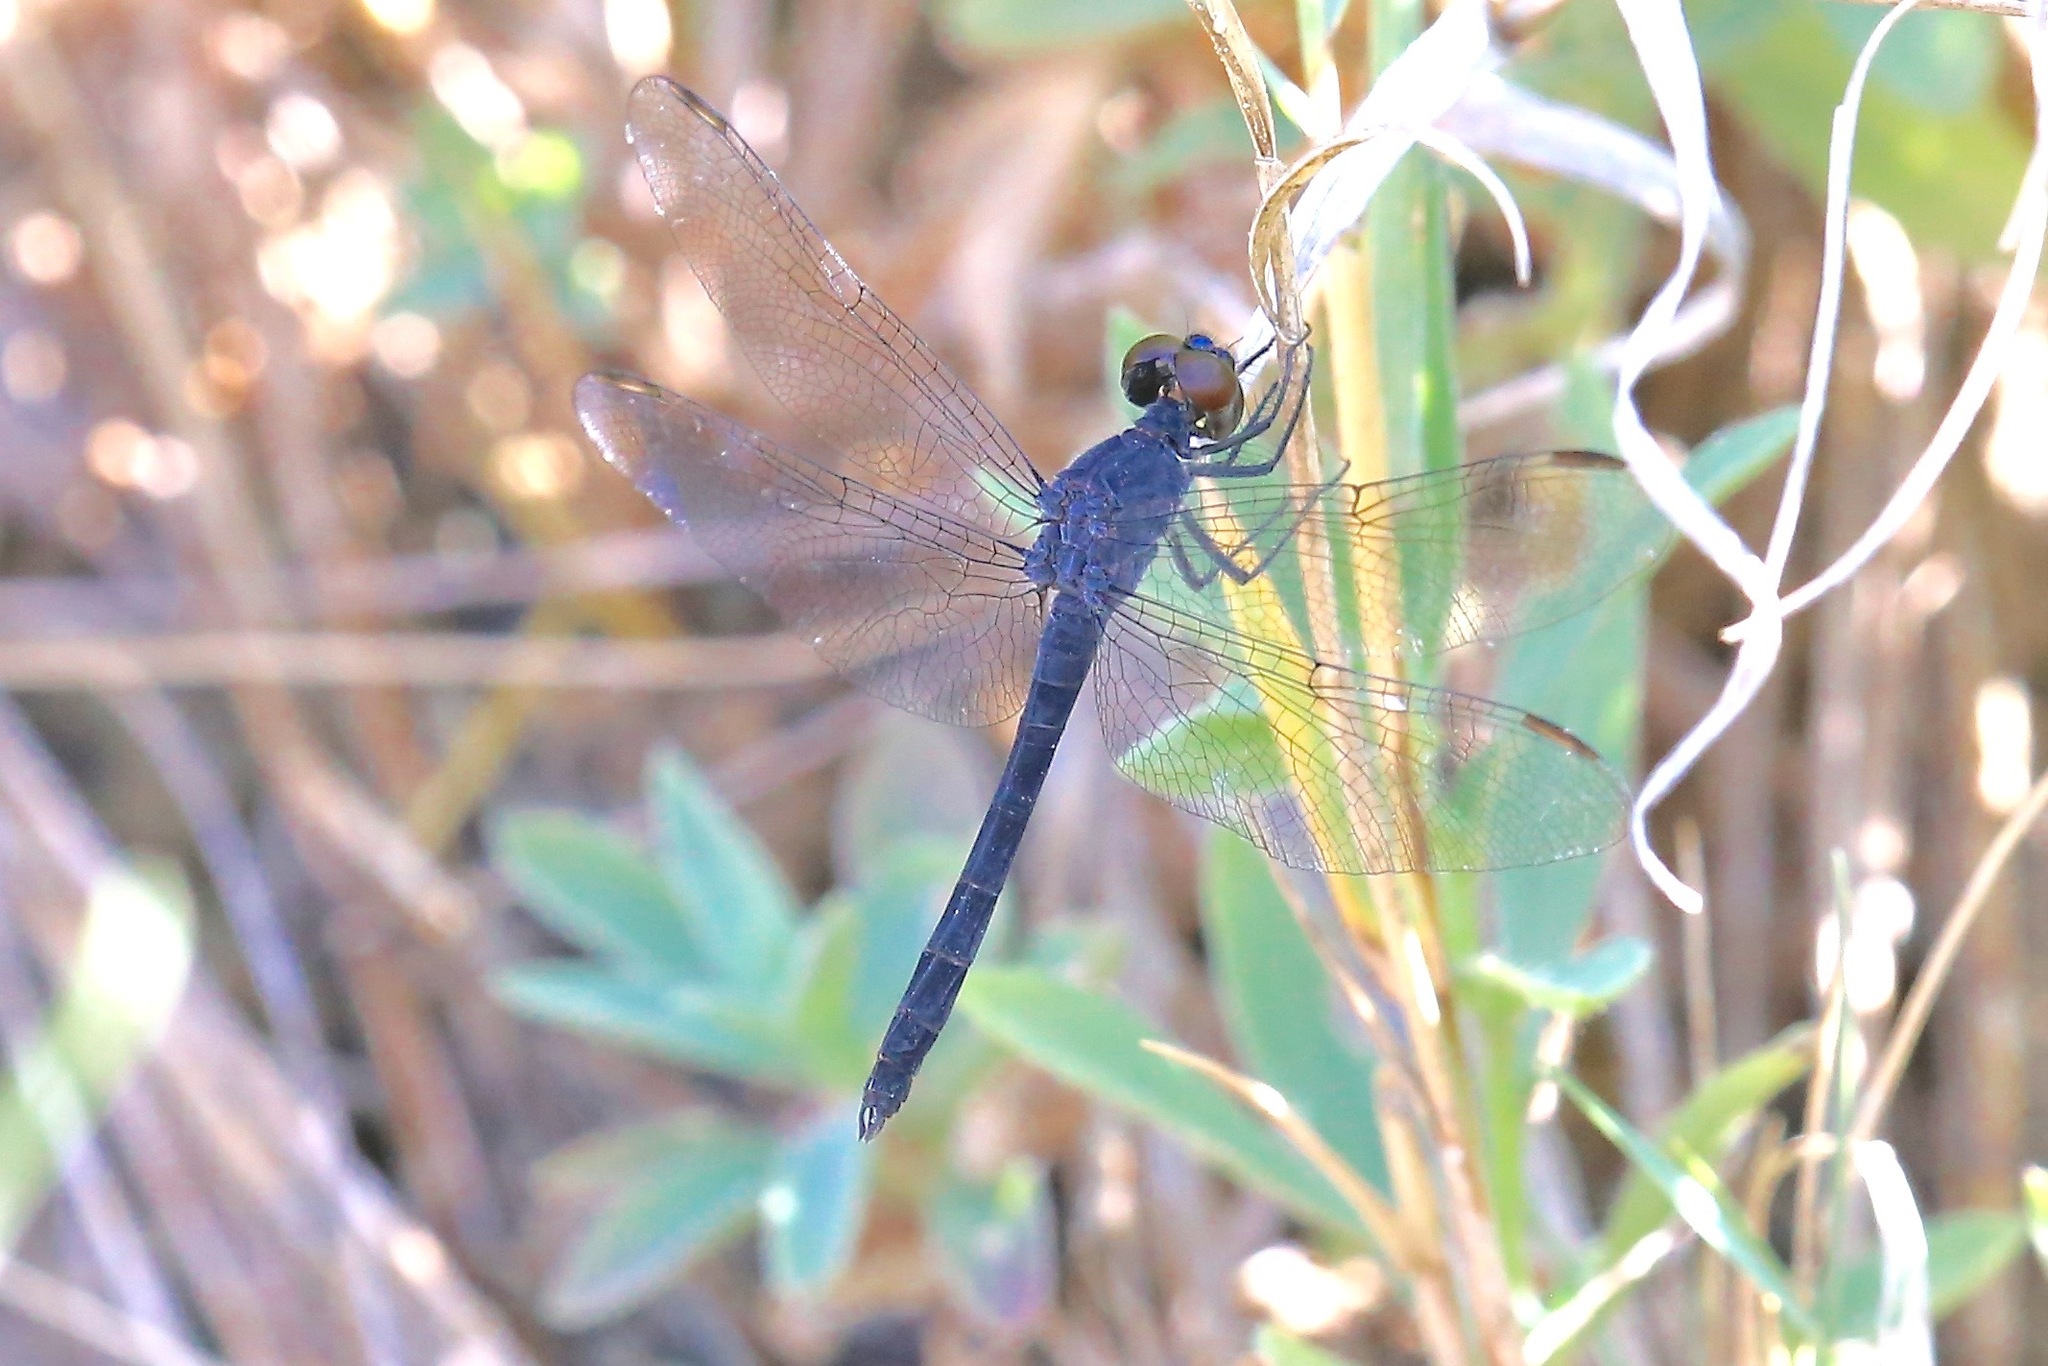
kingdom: Animalia
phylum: Arthropoda
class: Insecta
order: Odonata
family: Libellulidae
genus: Erythrodiplax
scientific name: Erythrodiplax berenice
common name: Seaside dragonlet
